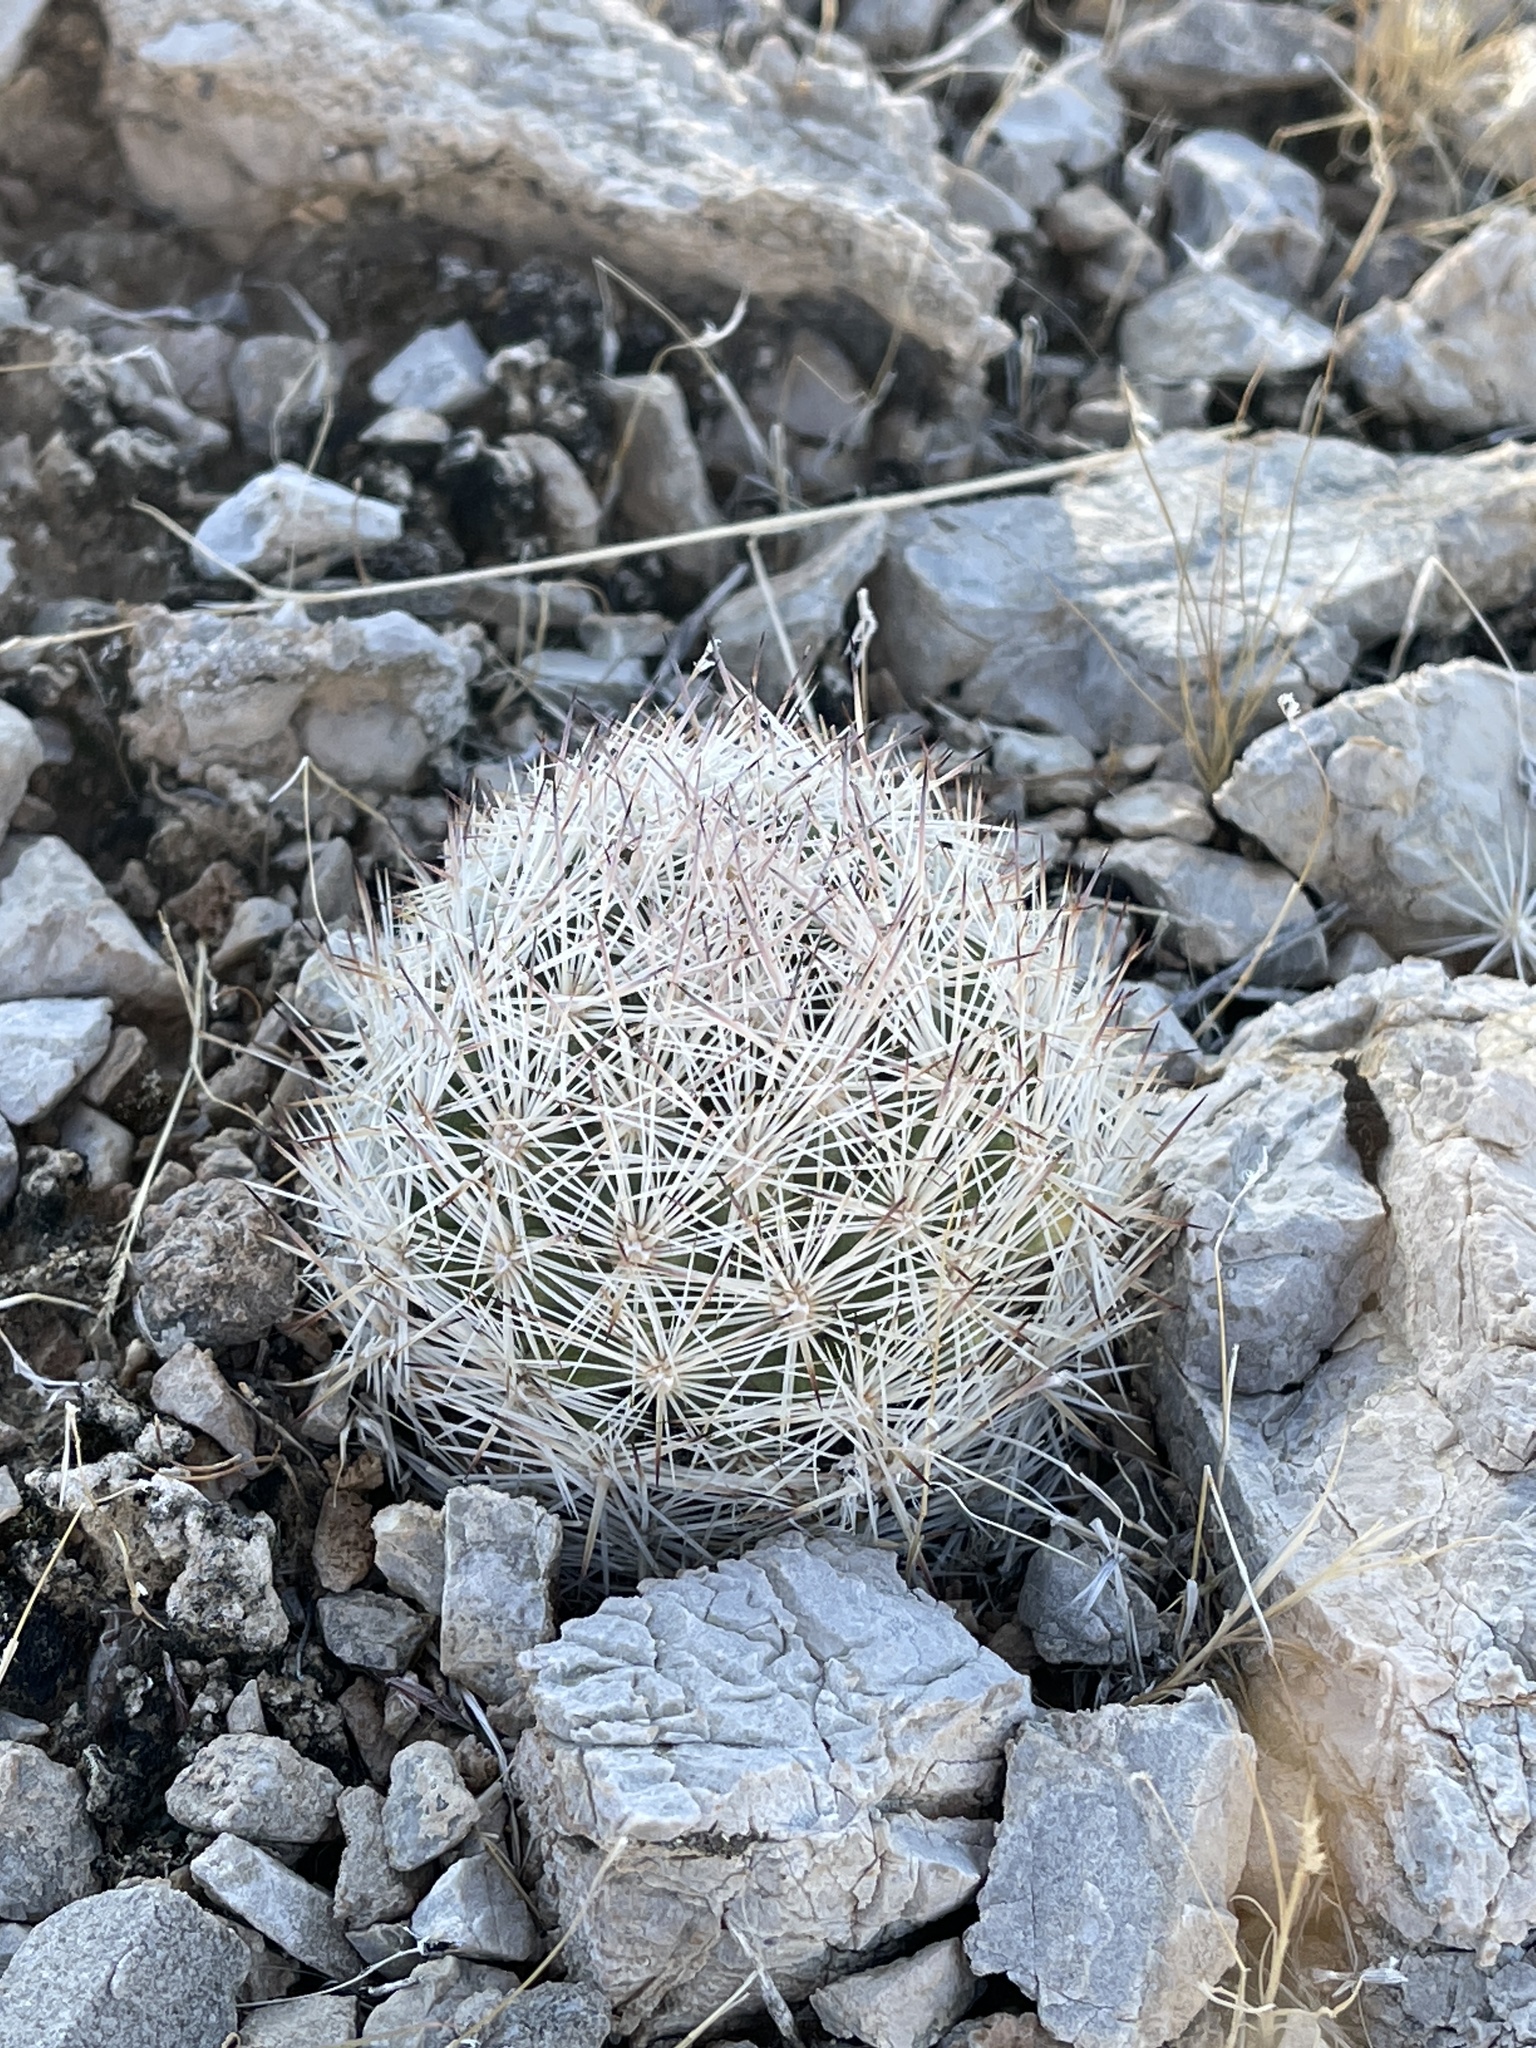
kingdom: Plantae
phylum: Tracheophyta
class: Magnoliopsida
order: Caryophyllales
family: Cactaceae
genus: Pelecyphora
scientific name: Pelecyphora dasyacantha
